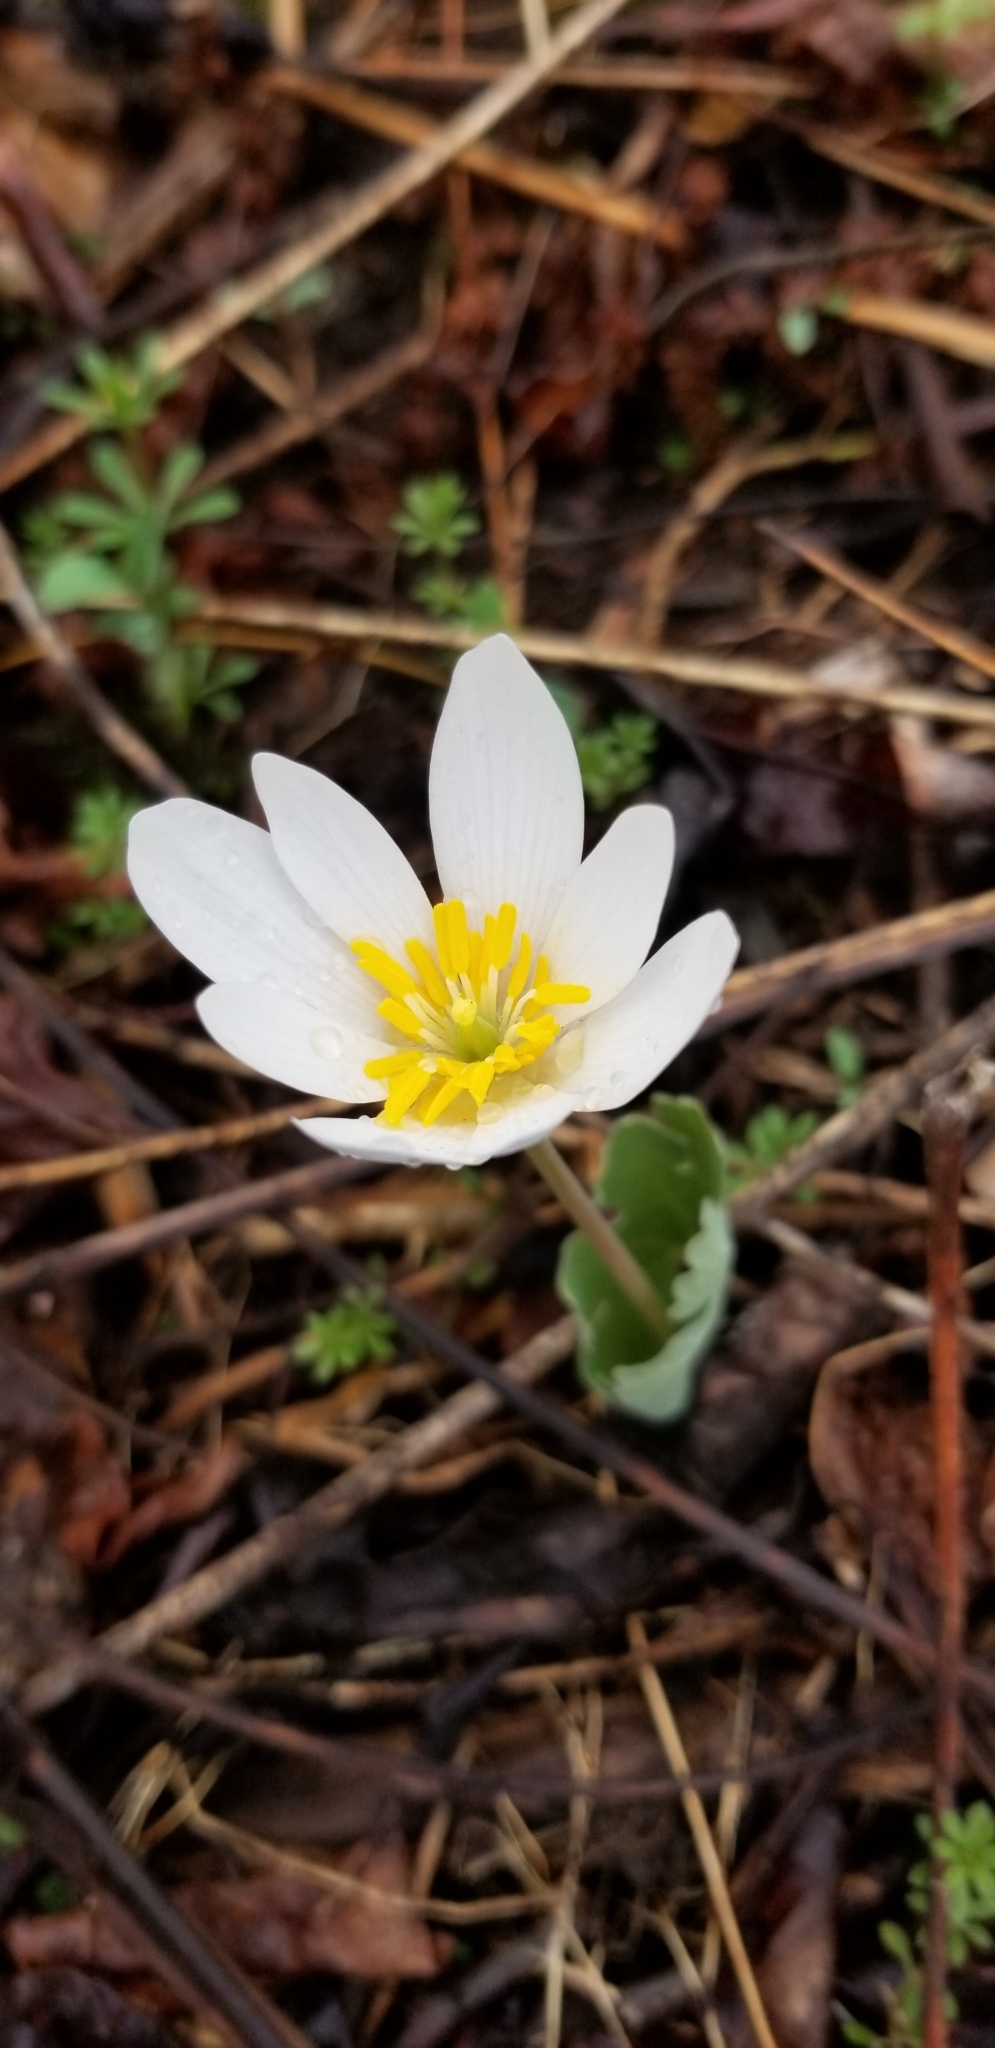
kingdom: Plantae
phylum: Tracheophyta
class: Magnoliopsida
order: Ranunculales
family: Papaveraceae
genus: Sanguinaria
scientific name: Sanguinaria canadensis
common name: Bloodroot
